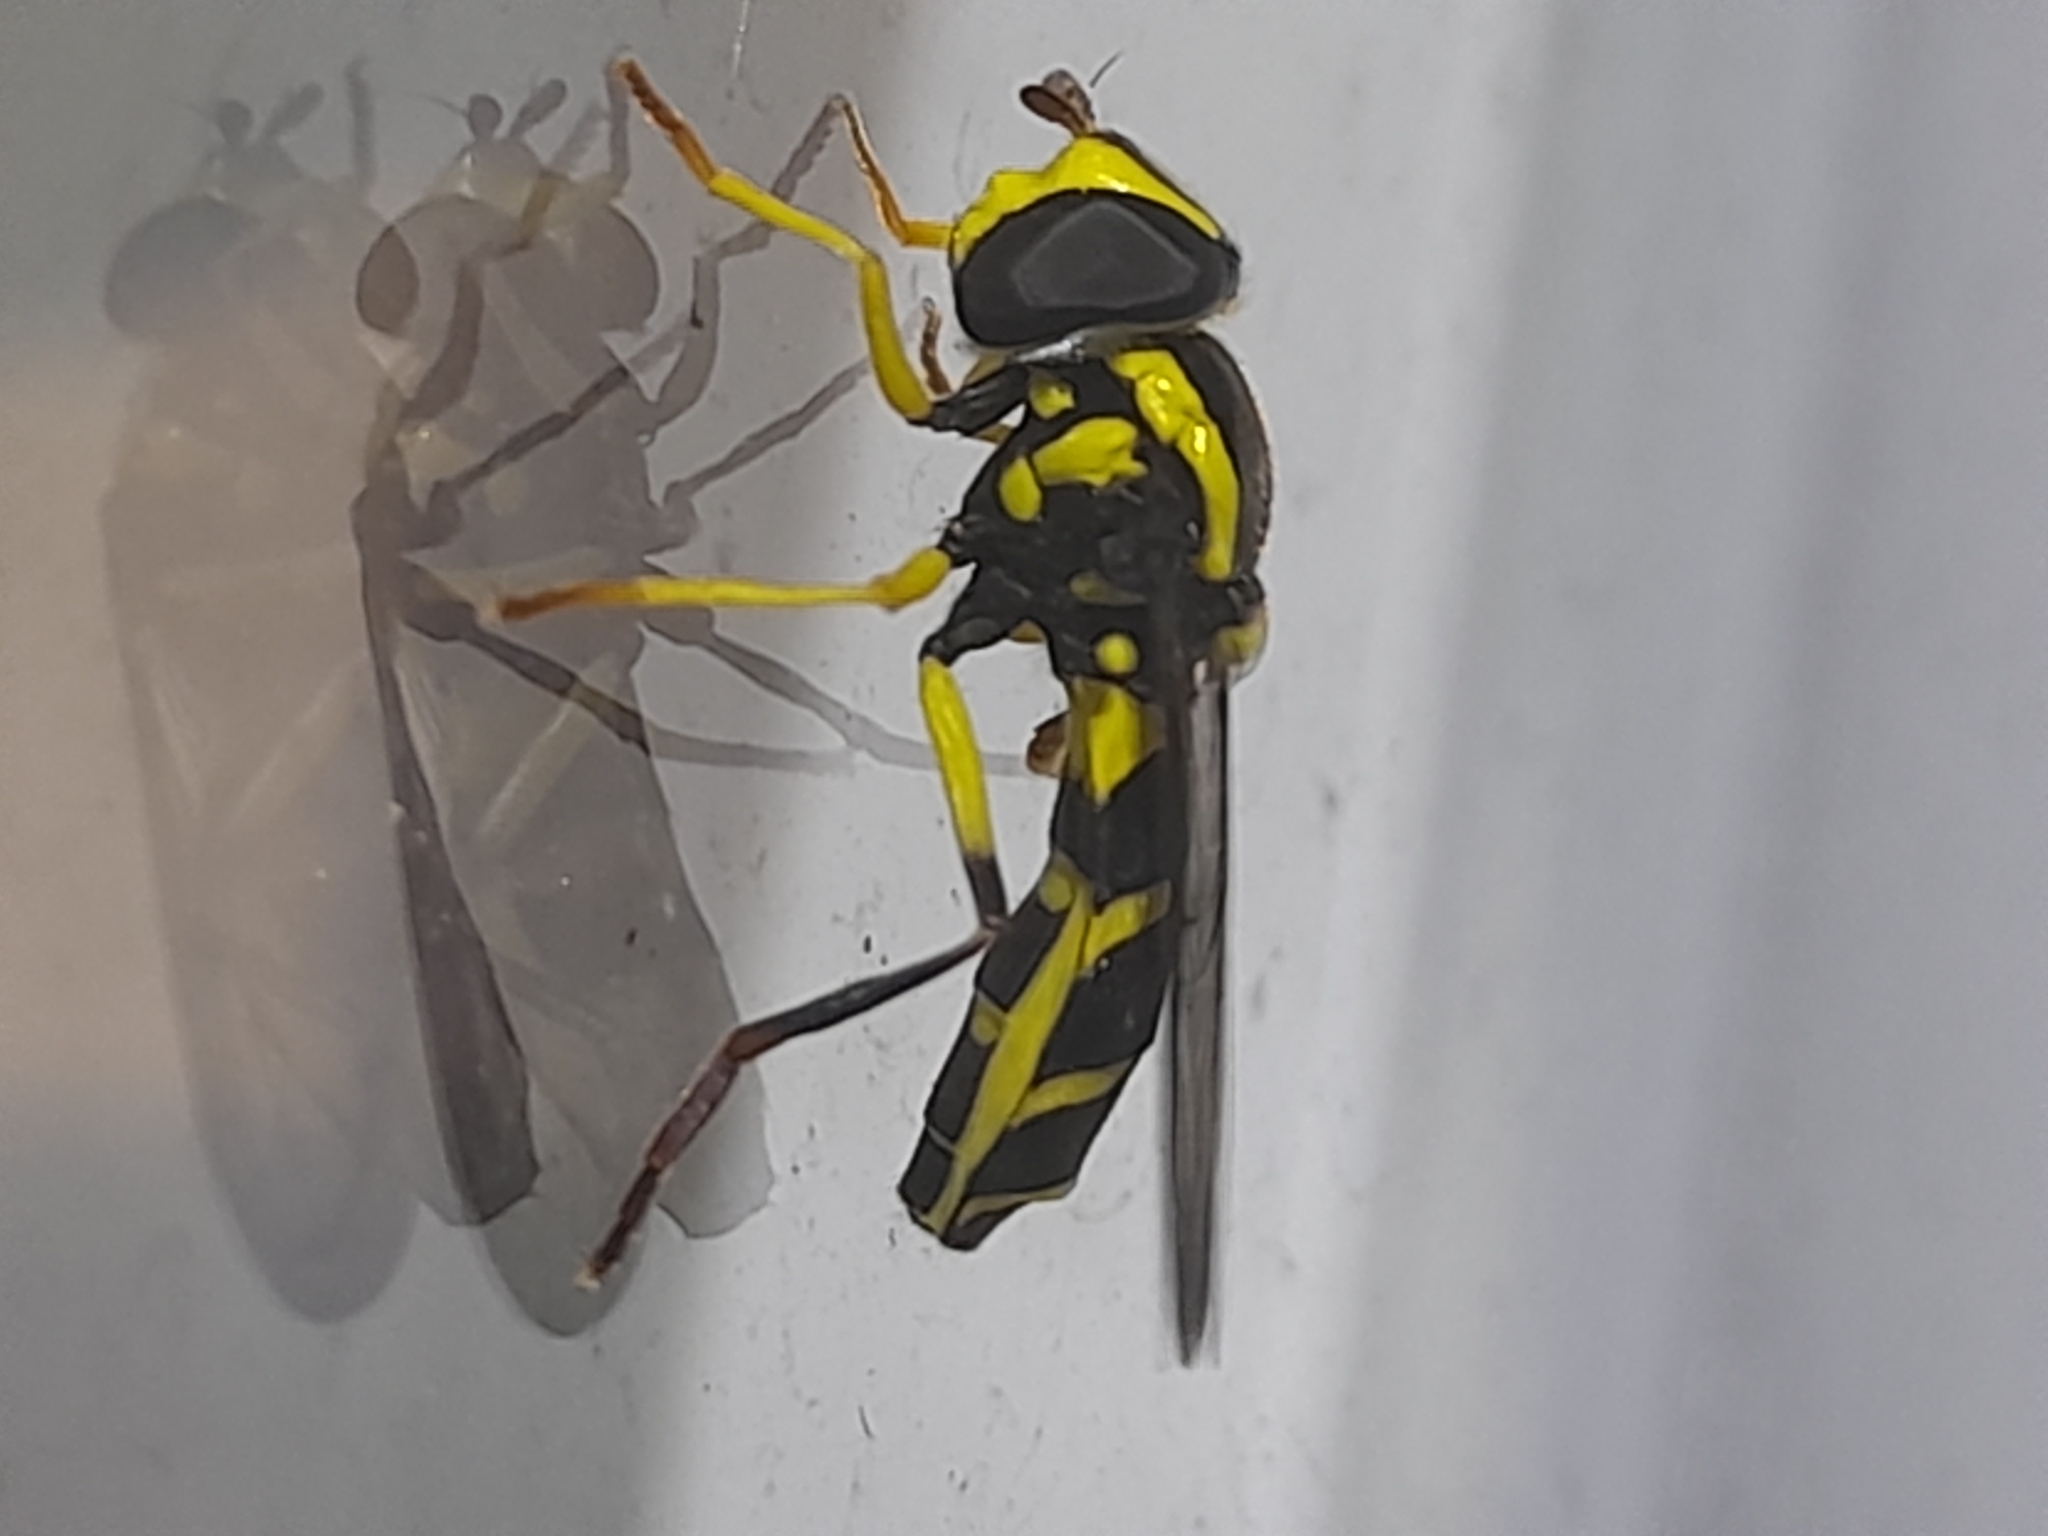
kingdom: Animalia
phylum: Arthropoda
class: Insecta
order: Diptera
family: Syrphidae
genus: Philhelius
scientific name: Philhelius dives
